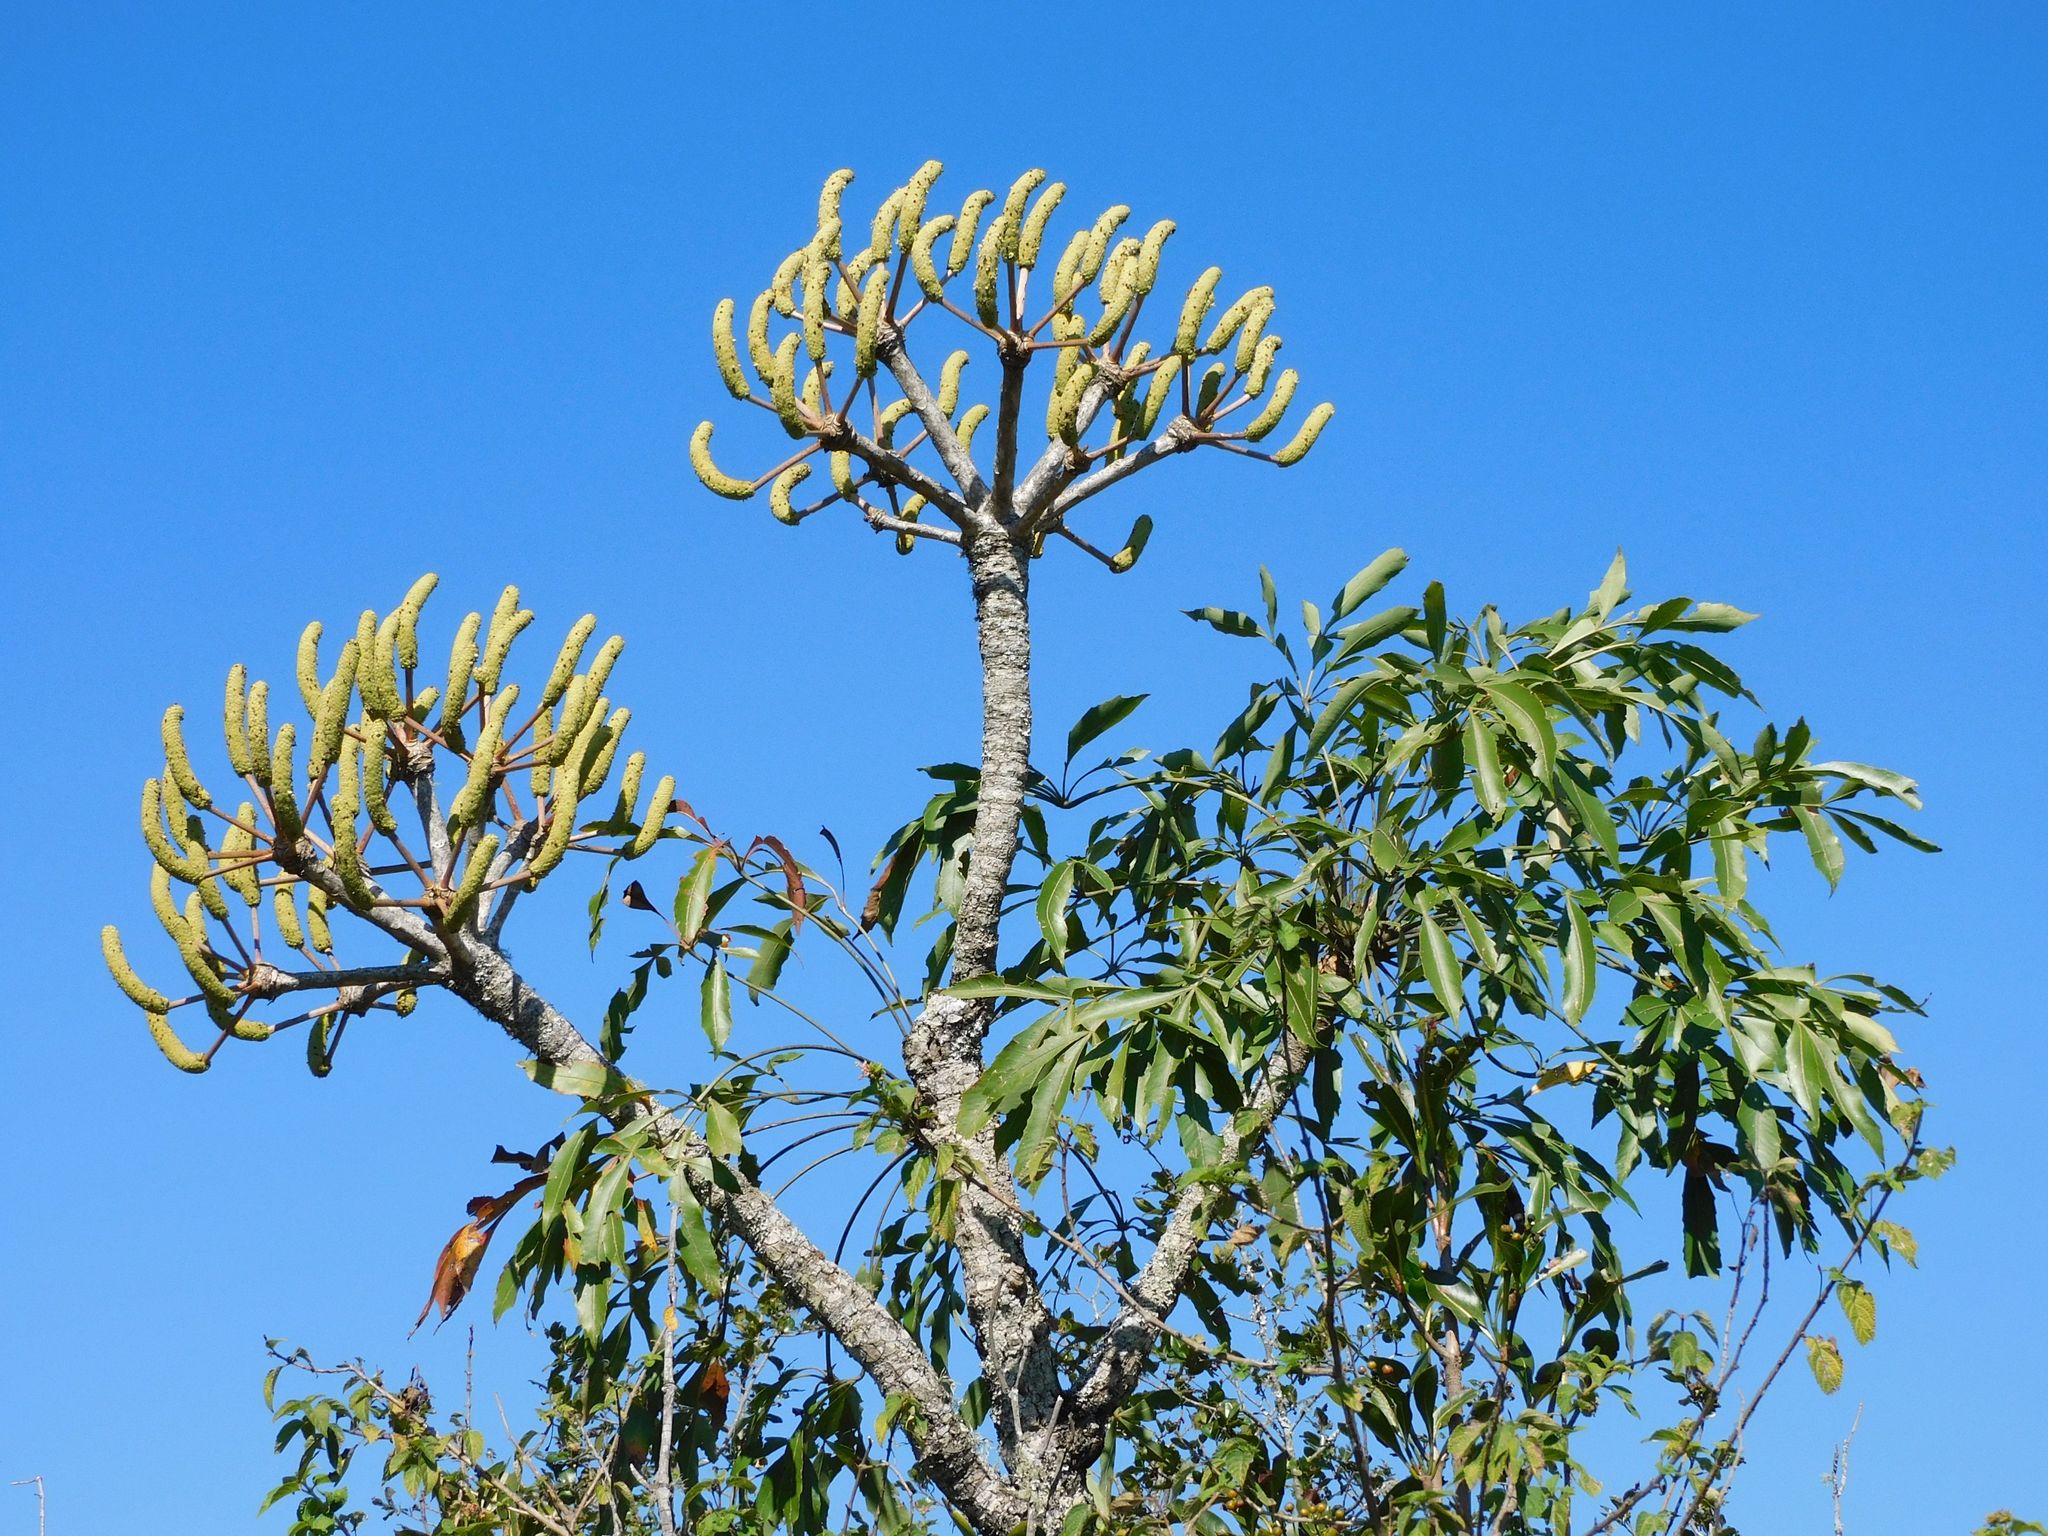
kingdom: Plantae
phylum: Tracheophyta
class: Magnoliopsida
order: Apiales
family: Araliaceae
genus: Cussonia
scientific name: Cussonia spicata
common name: Common cabbagetree
